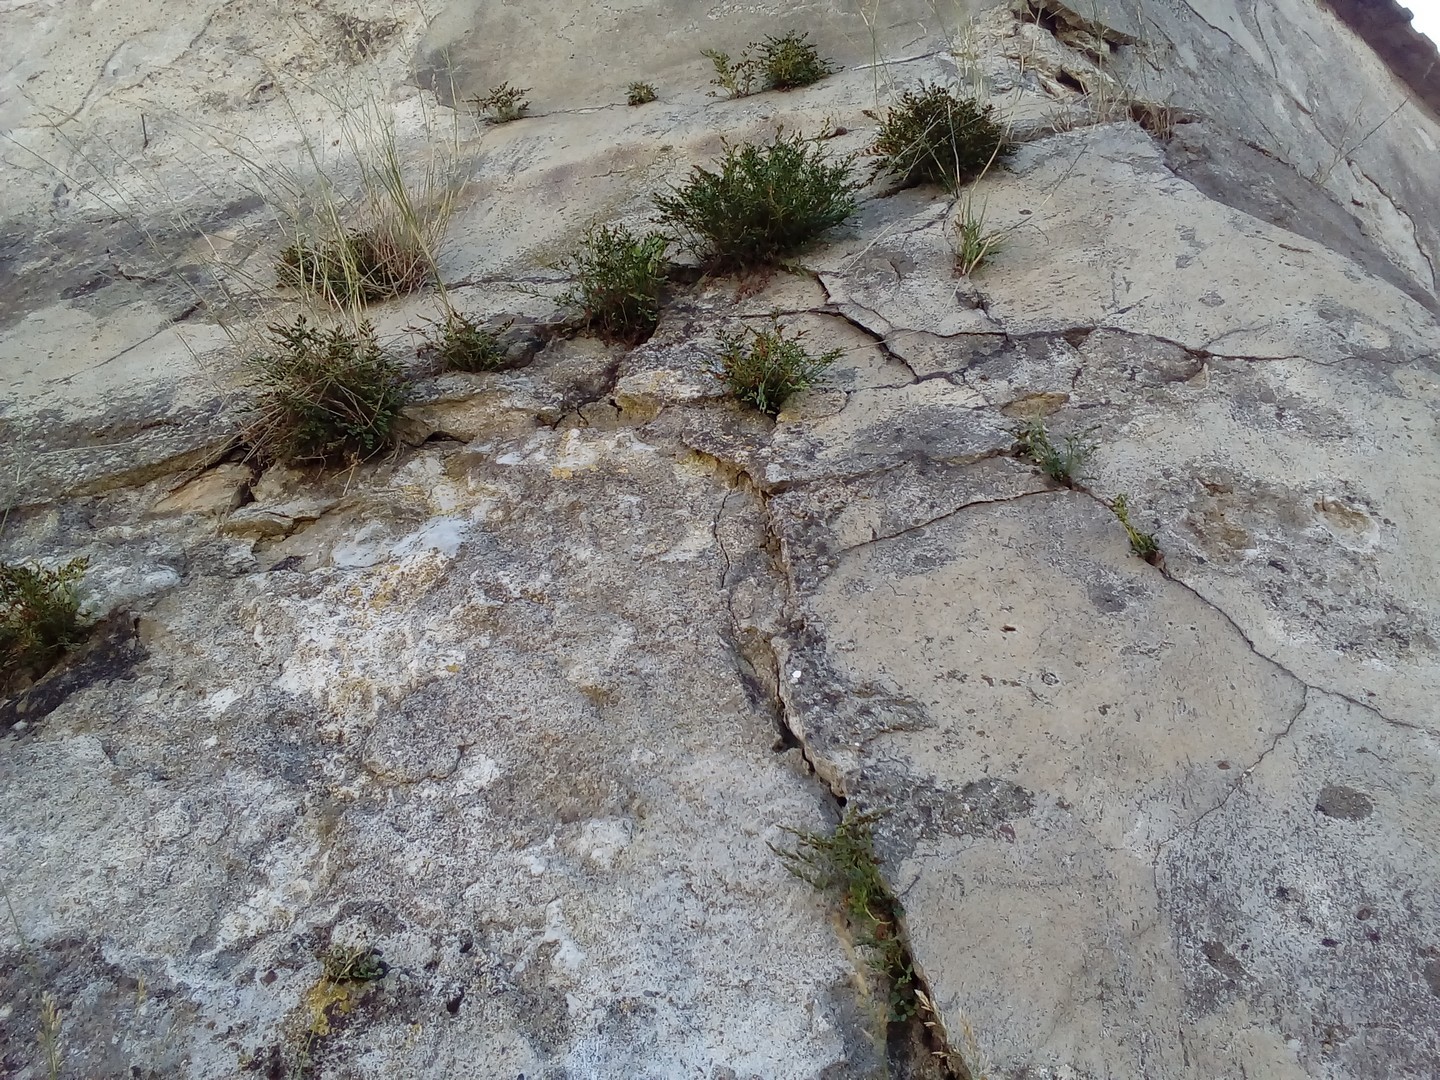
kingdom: Plantae
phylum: Tracheophyta
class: Polypodiopsida
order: Polypodiales
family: Aspleniaceae
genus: Asplenium
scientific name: Asplenium ruta-muraria
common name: Wall-rue
